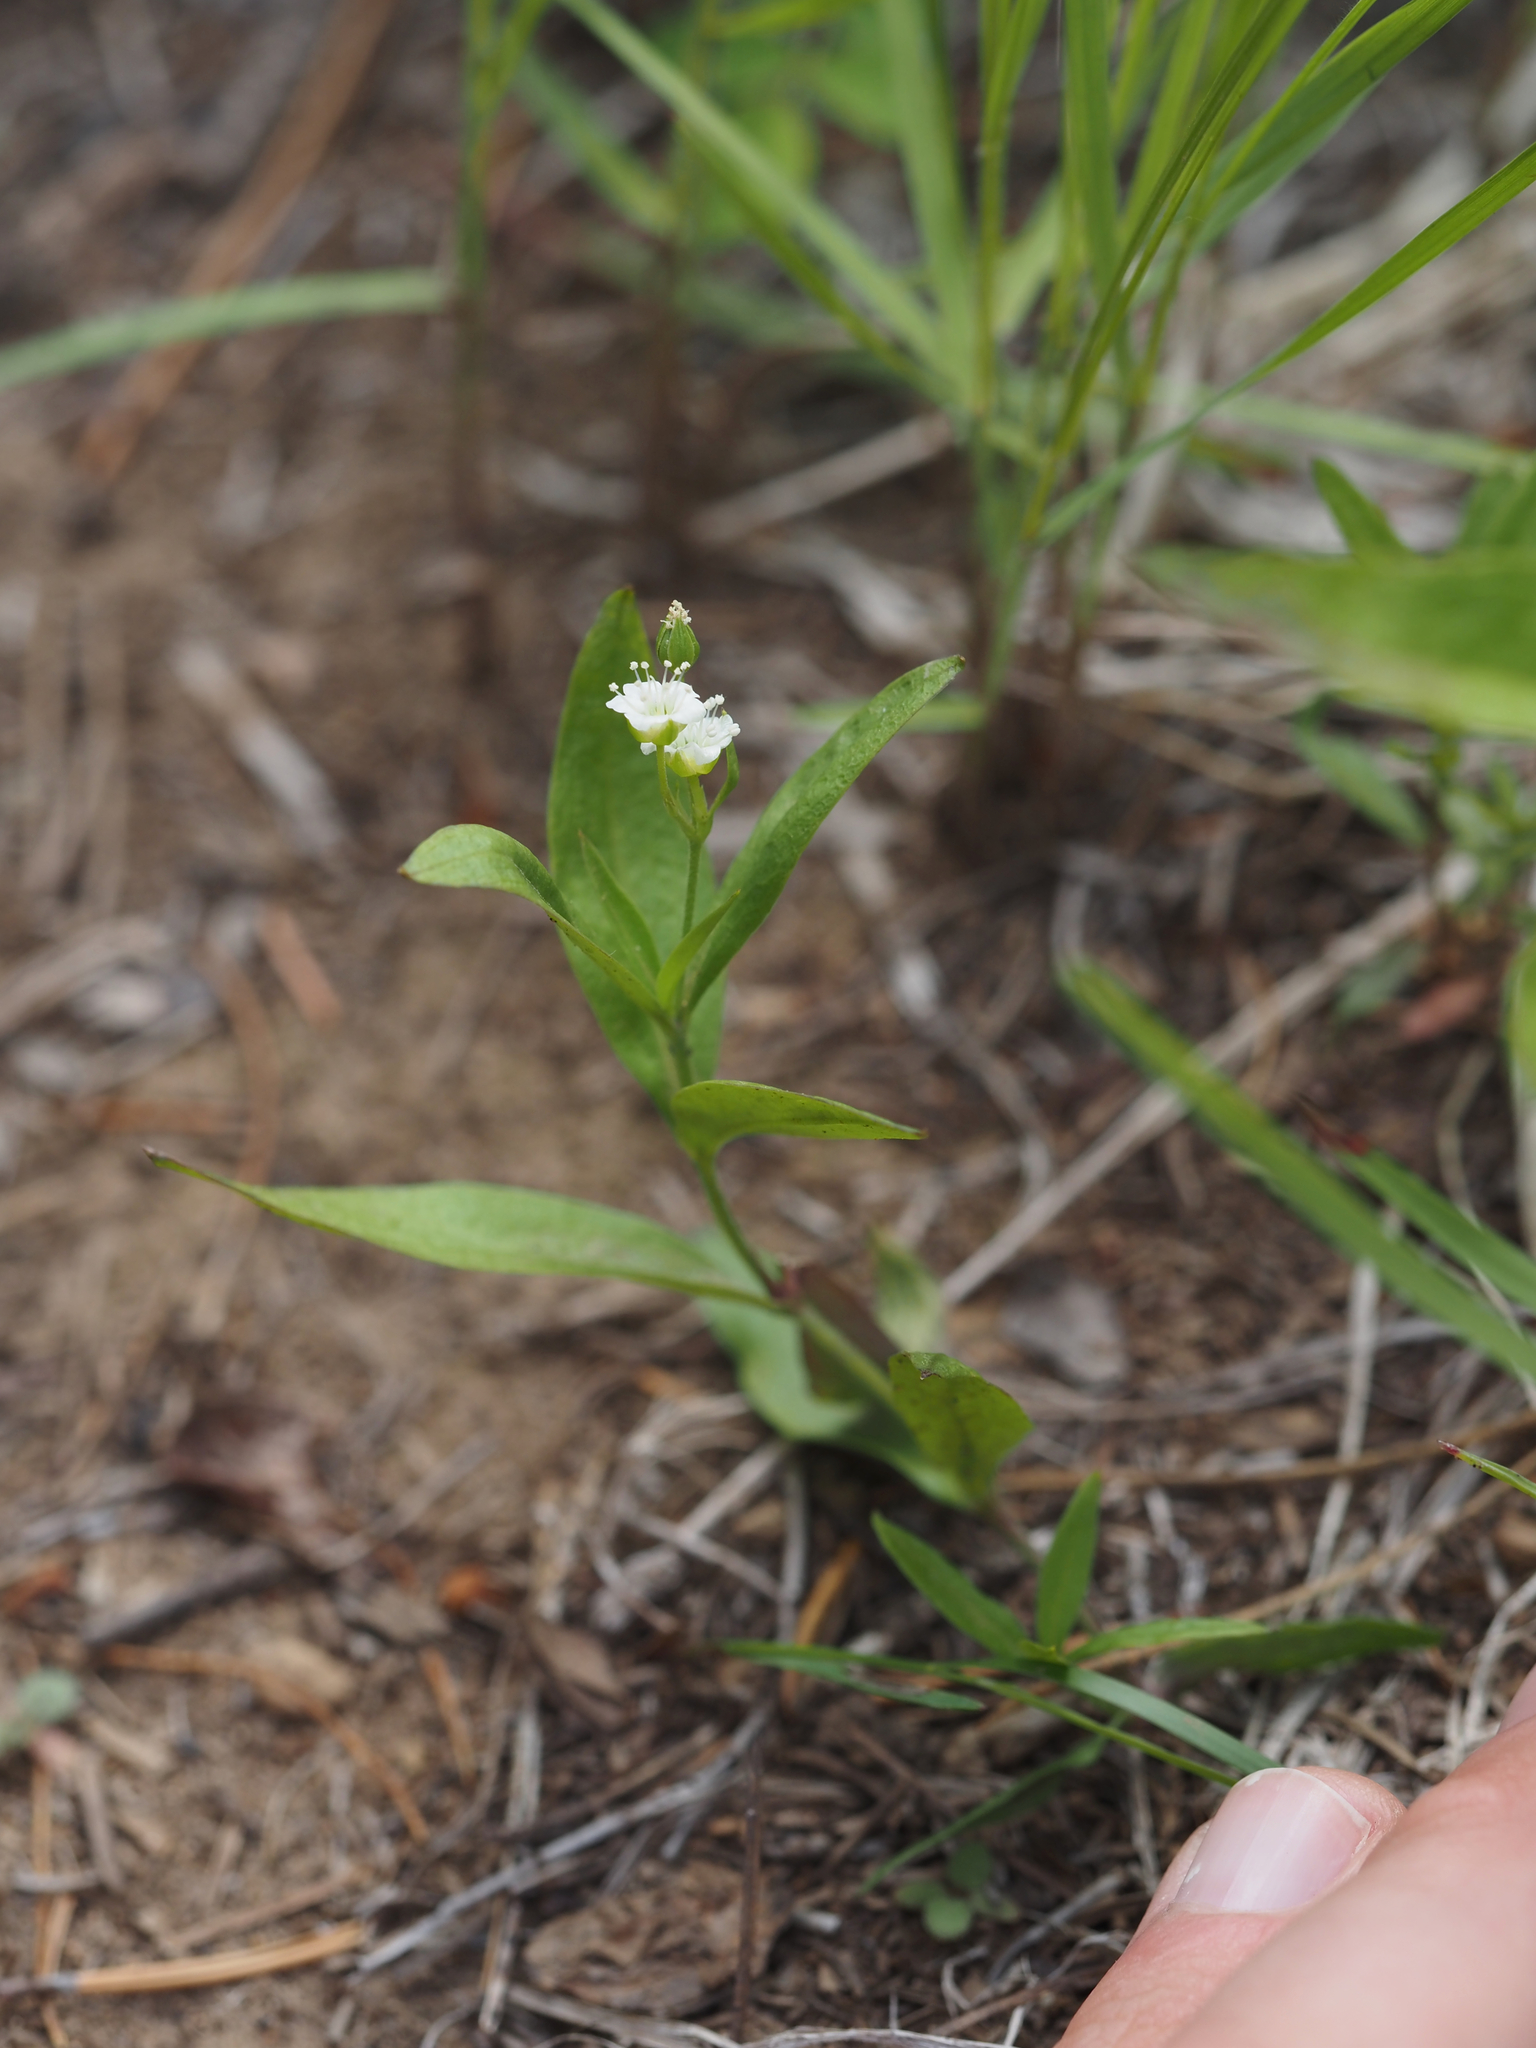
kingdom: Plantae
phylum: Tracheophyta
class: Magnoliopsida
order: Caryophyllales
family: Caryophyllaceae
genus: Moehringia
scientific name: Moehringia macrophylla
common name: Big-leaf sandwort
